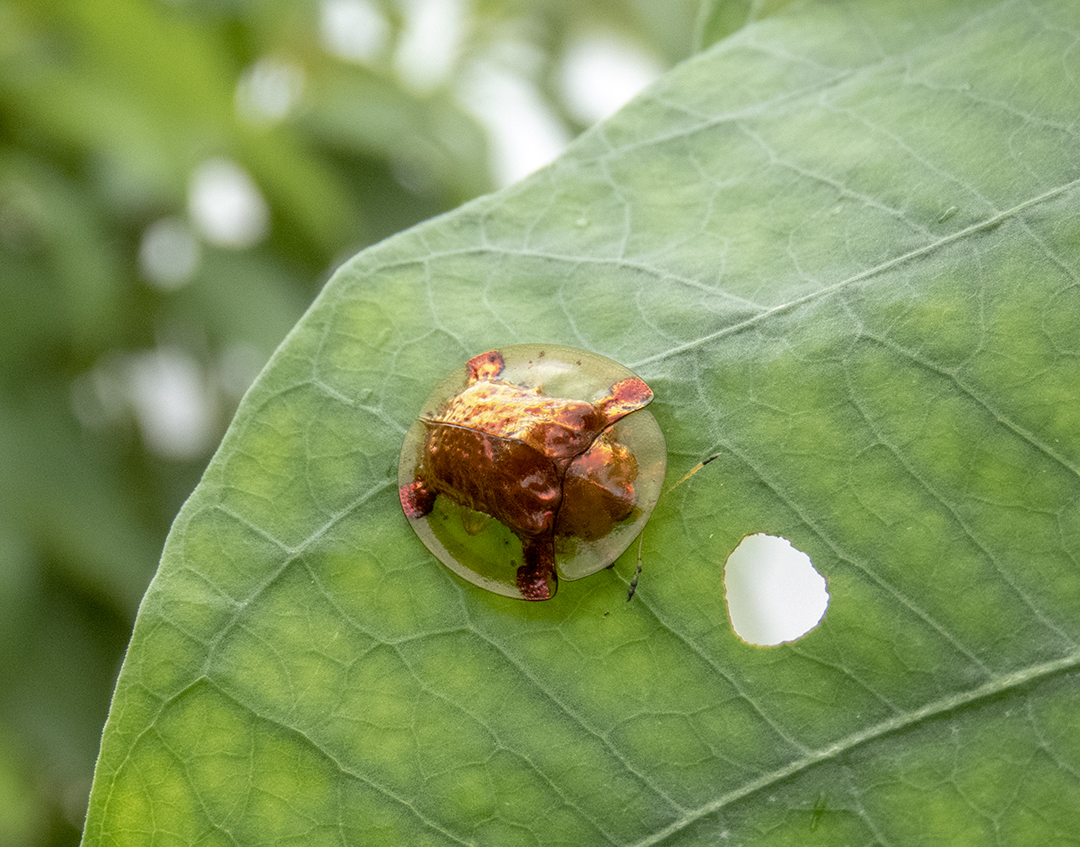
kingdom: Animalia
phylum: Arthropoda
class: Insecta
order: Coleoptera
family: Chrysomelidae
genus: Aspidimorpha
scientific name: Aspidimorpha sanctaecrucis
